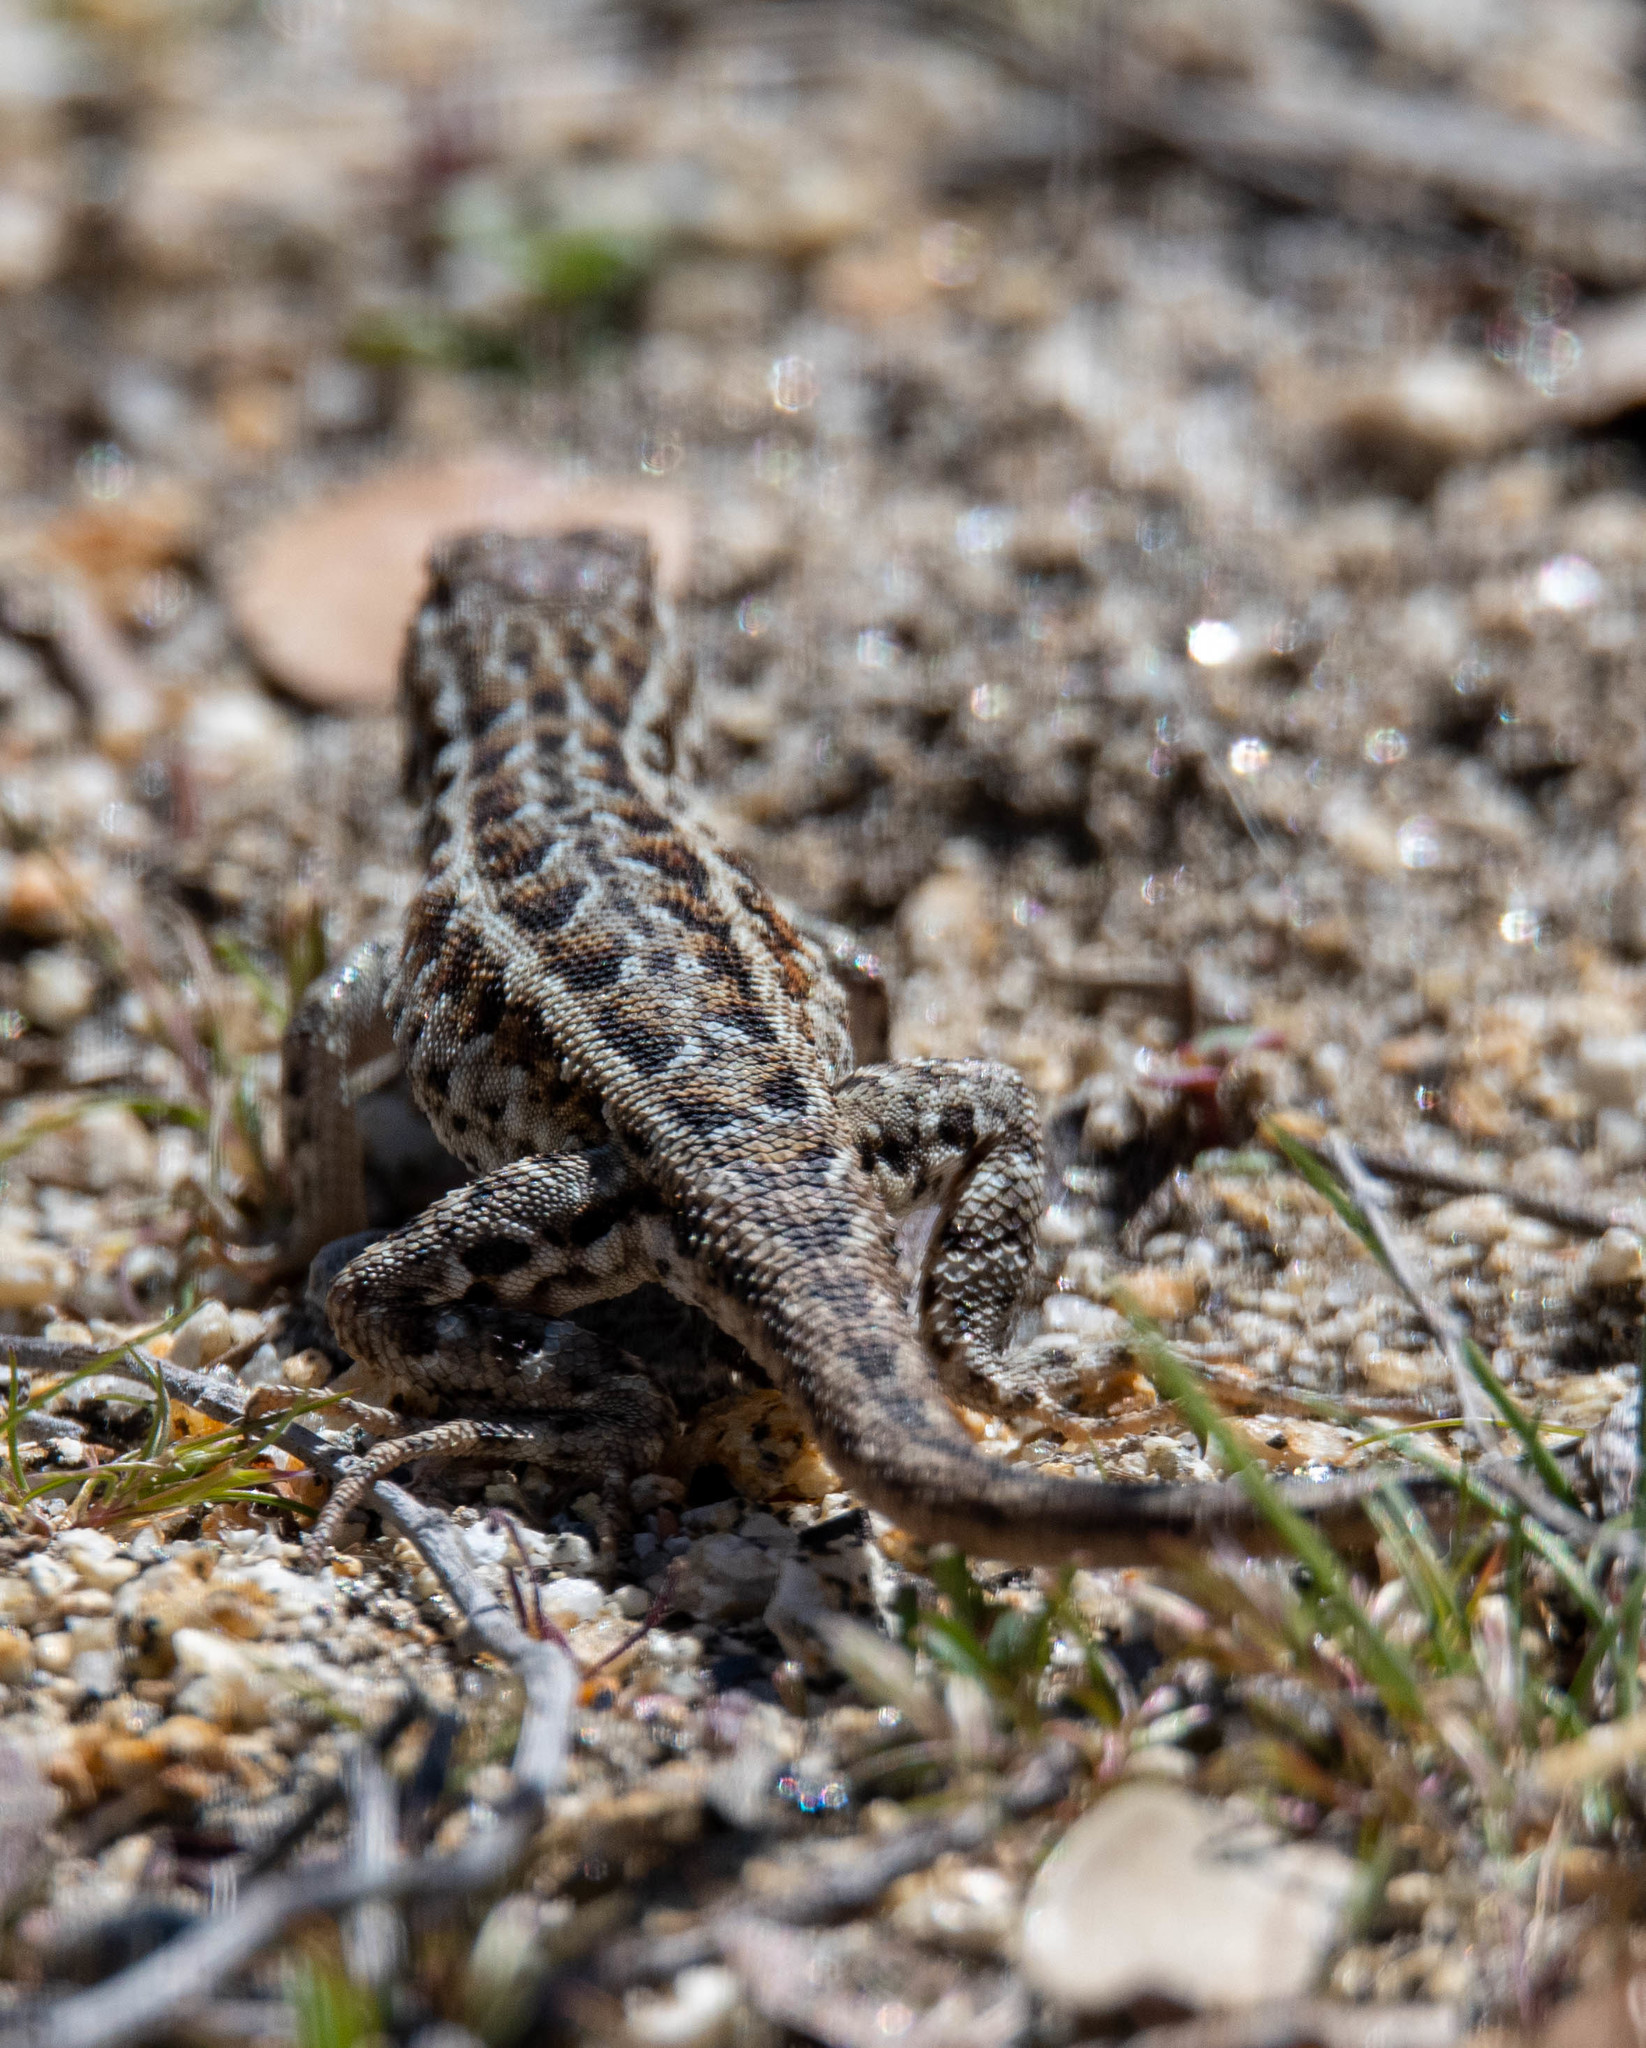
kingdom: Animalia
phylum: Chordata
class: Squamata
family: Phrynosomatidae
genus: Uta
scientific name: Uta stansburiana
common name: Side-blotched lizard
